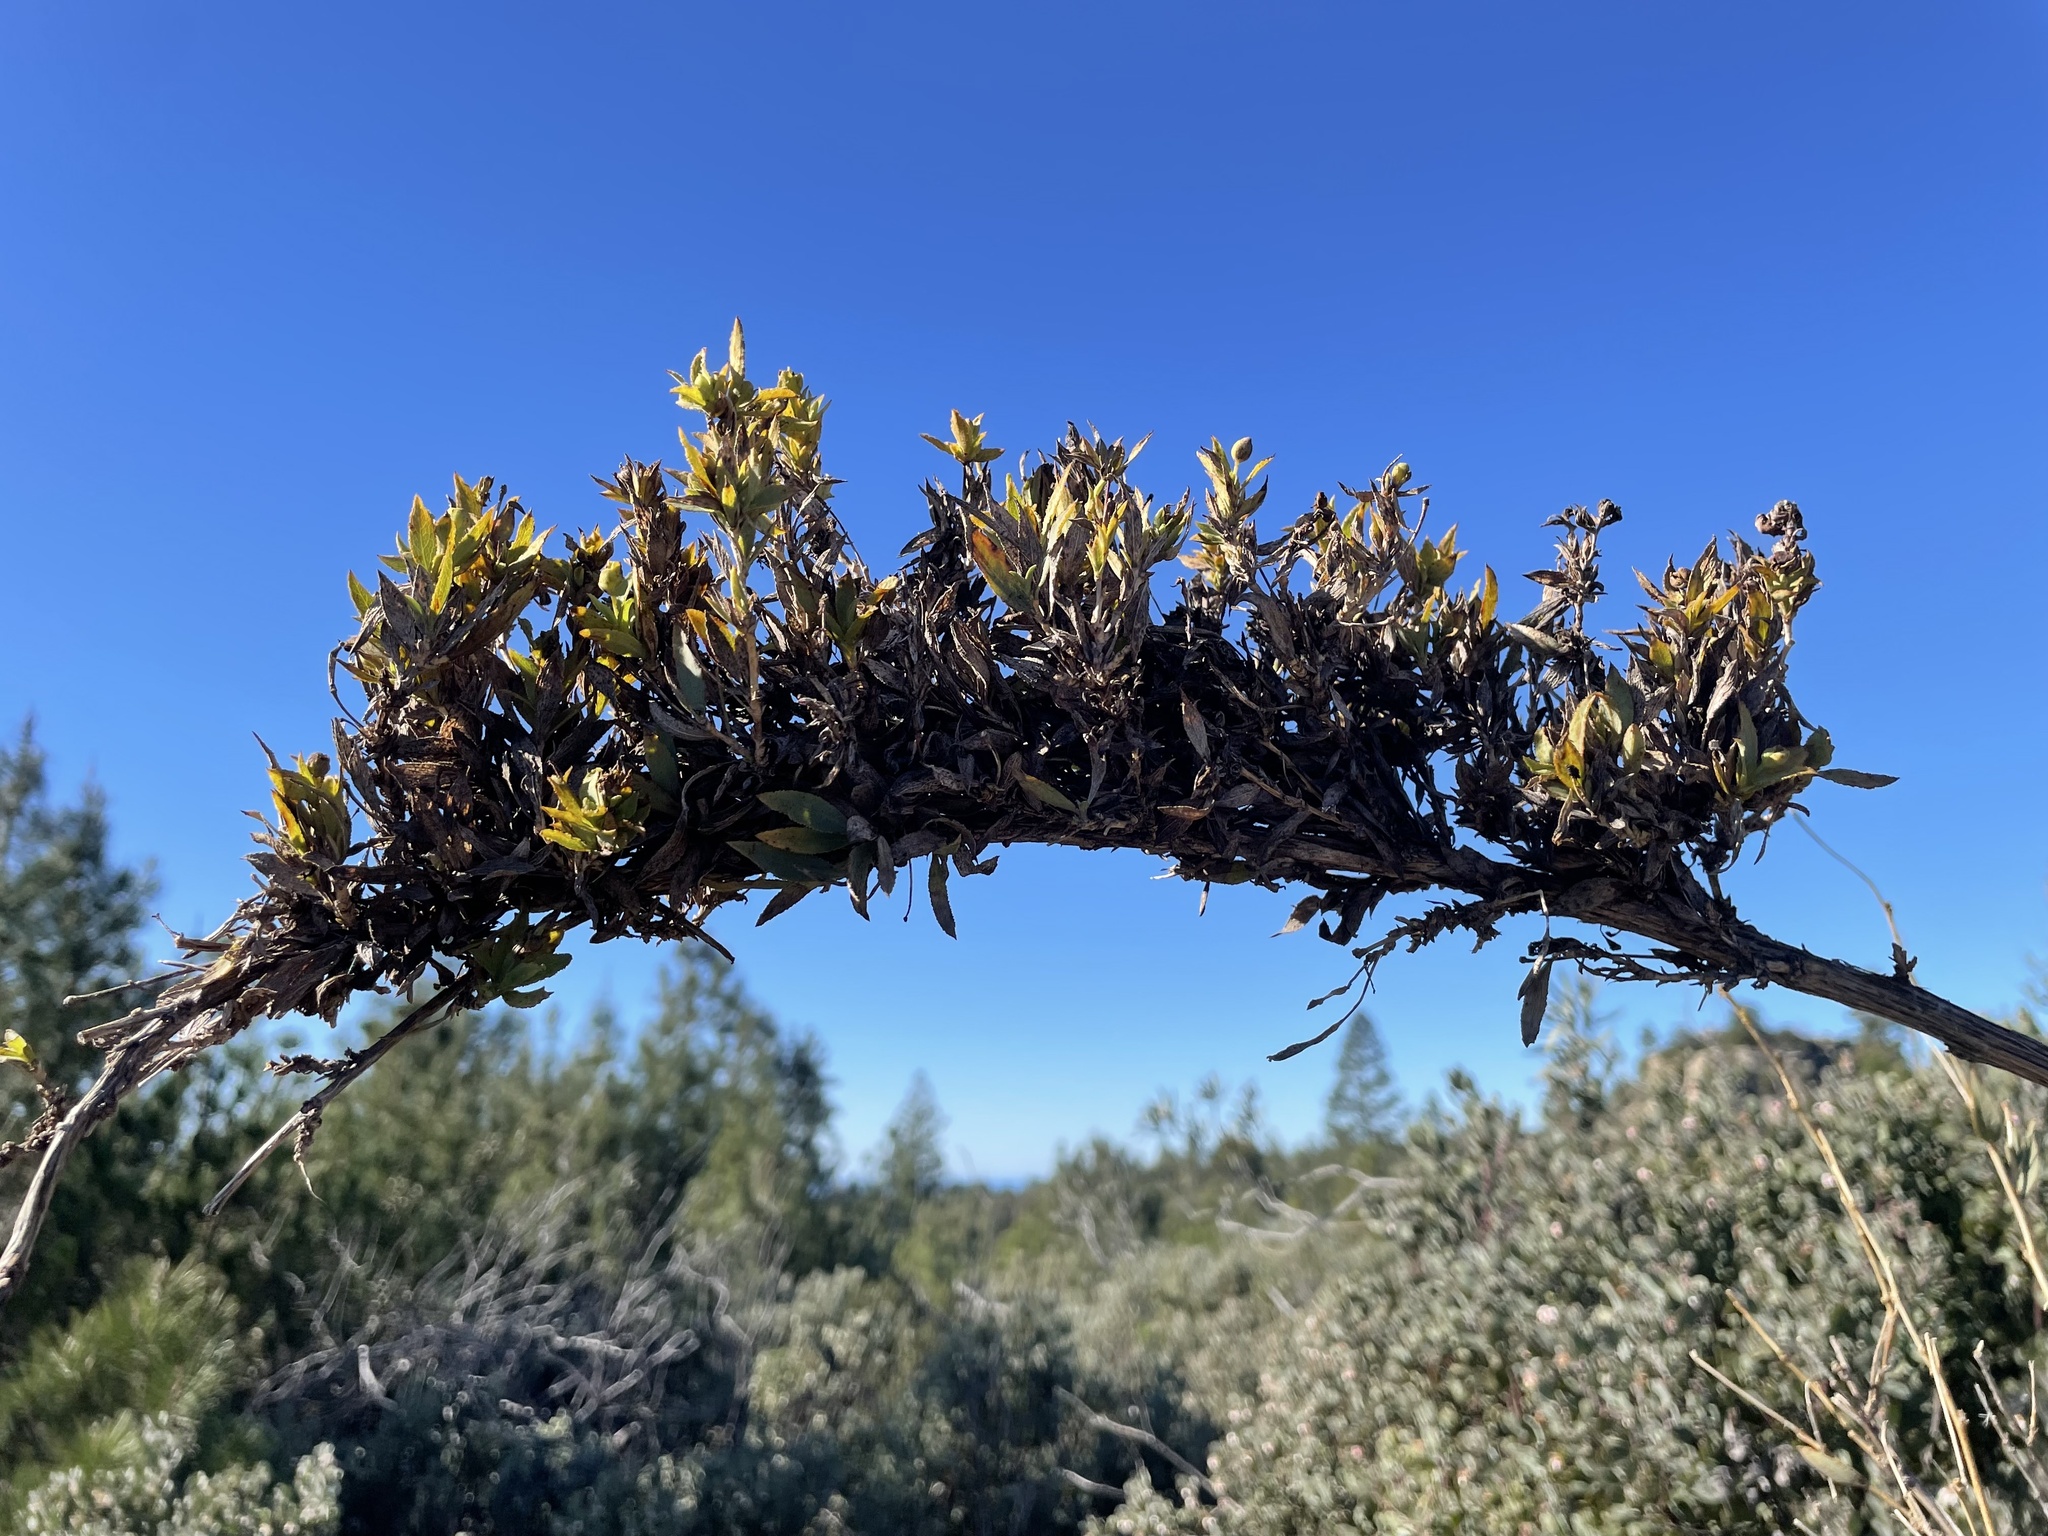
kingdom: Plantae
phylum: Tracheophyta
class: Magnoliopsida
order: Ranunculales
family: Papaveraceae
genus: Dendromecon
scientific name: Dendromecon rigida
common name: Tree poppy
